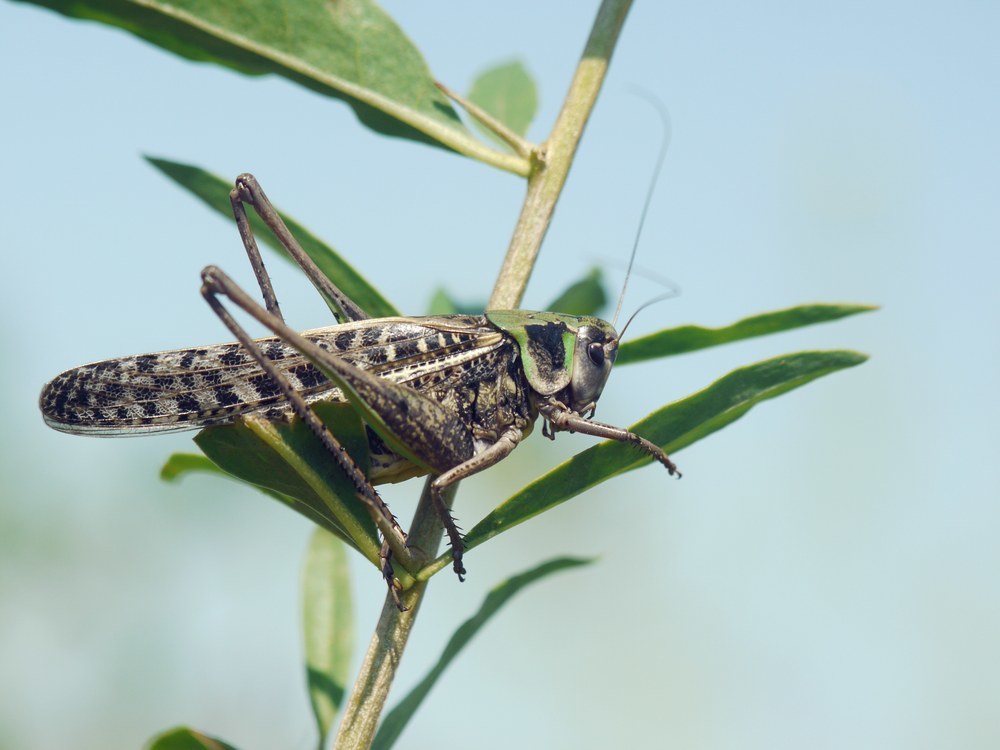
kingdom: Animalia
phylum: Arthropoda
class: Insecta
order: Orthoptera
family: Tettigoniidae
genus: Decticus
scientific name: Decticus verrucivorus
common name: Wart-biter
